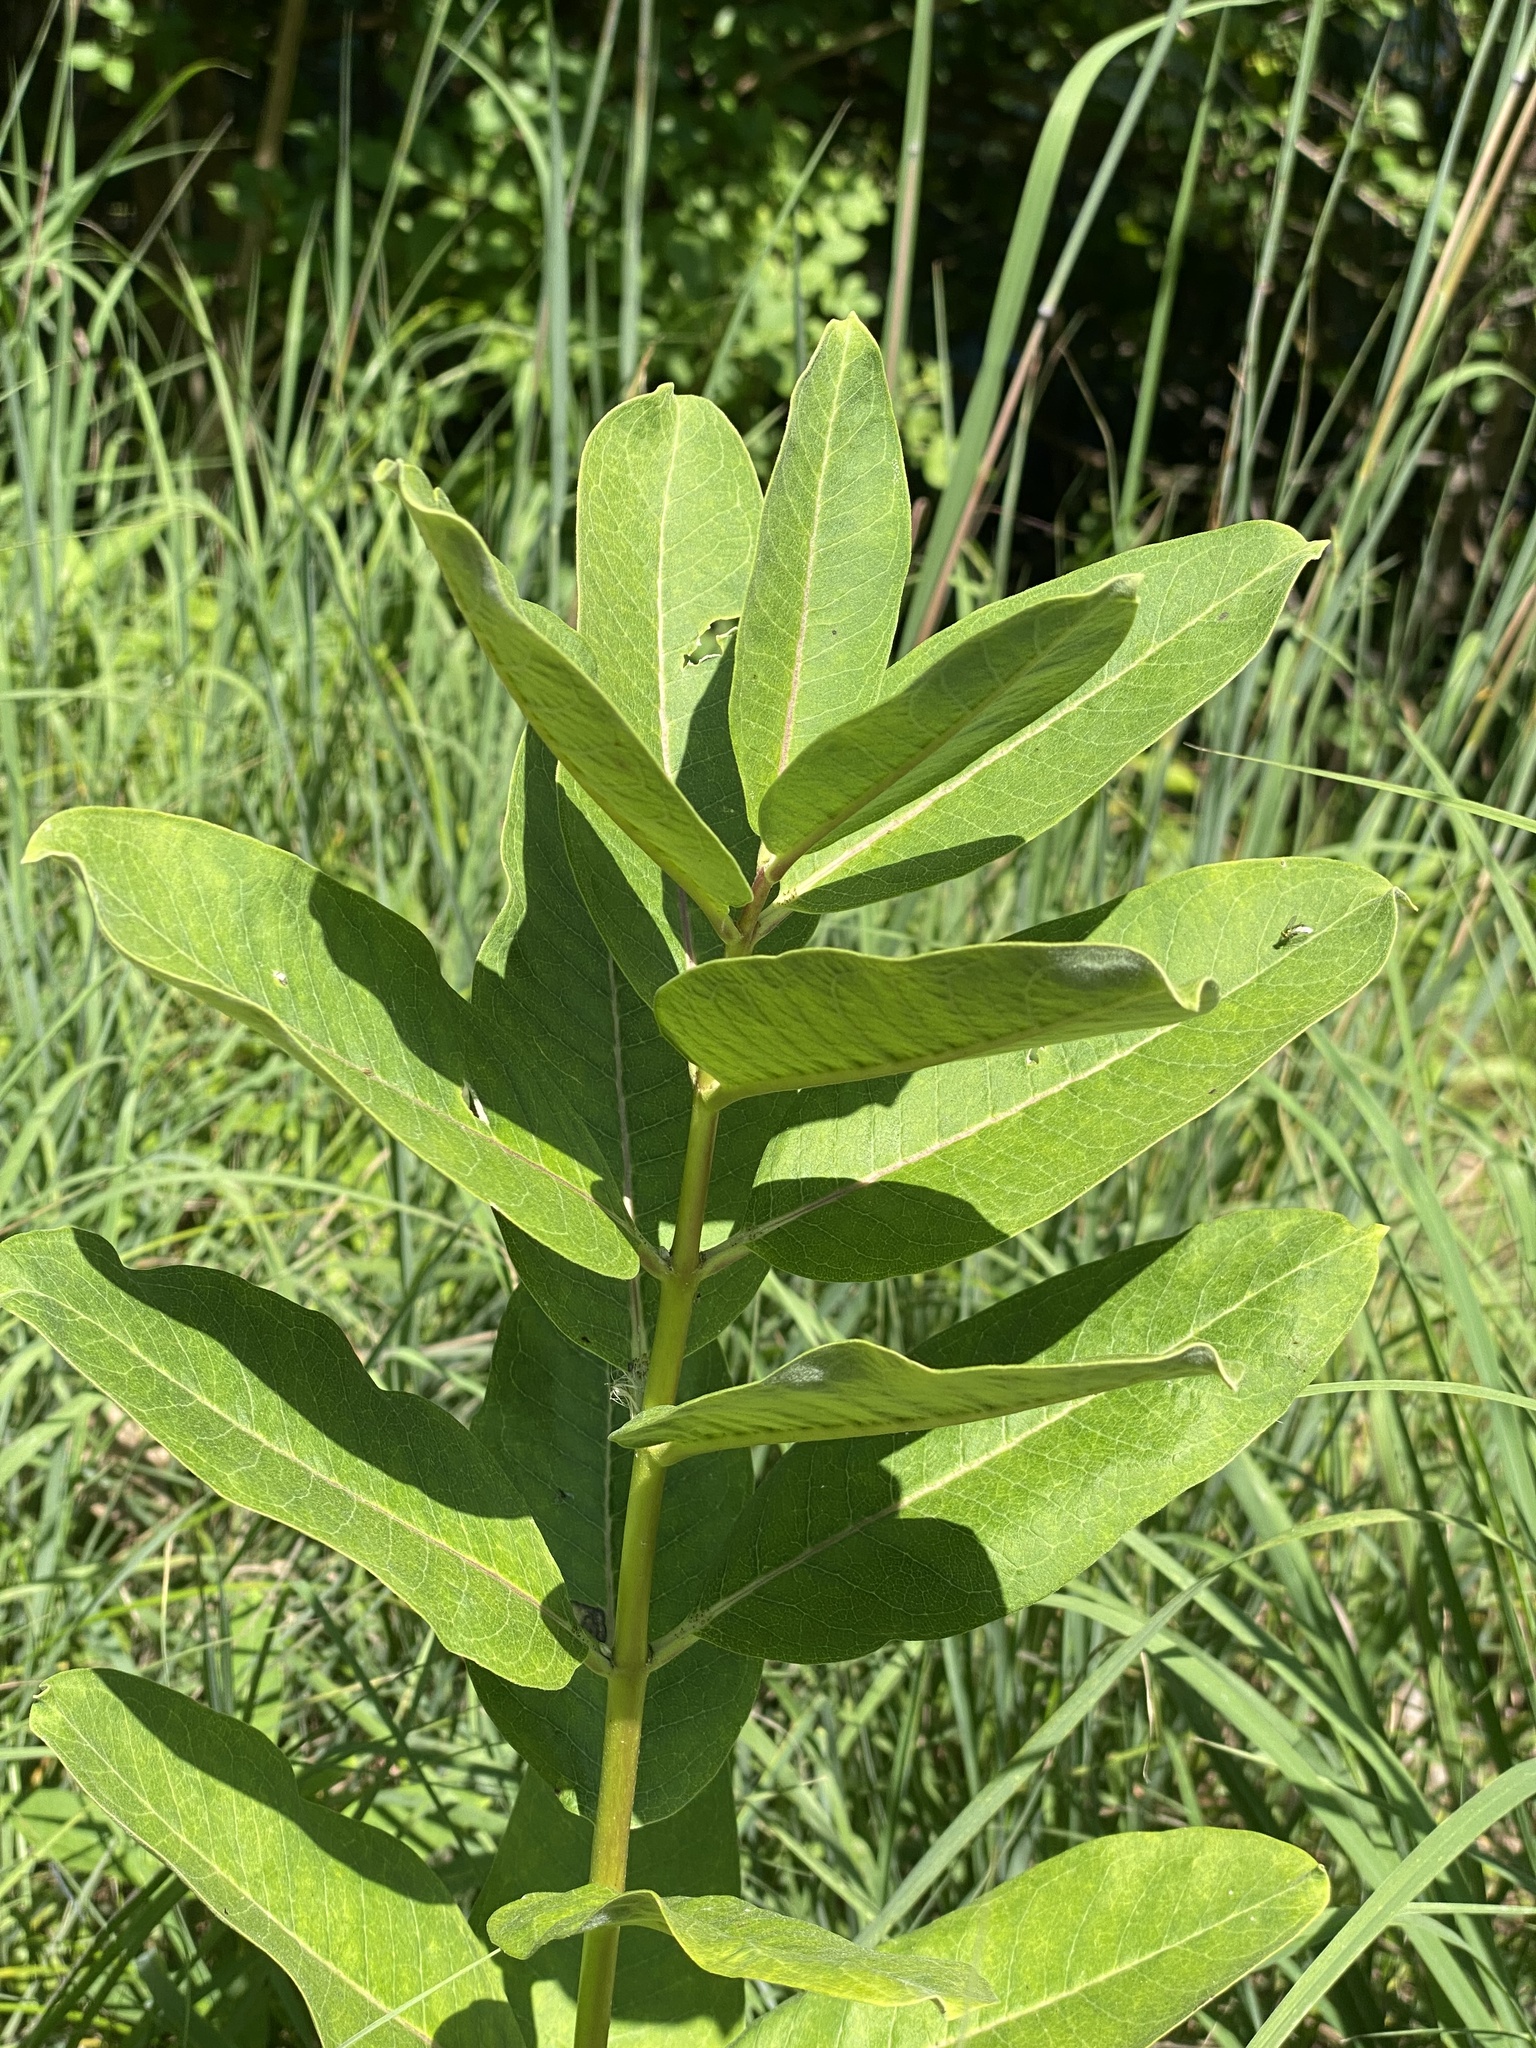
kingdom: Plantae
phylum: Tracheophyta
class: Magnoliopsida
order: Gentianales
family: Apocynaceae
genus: Asclepias
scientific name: Asclepias syriaca
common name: Common milkweed
